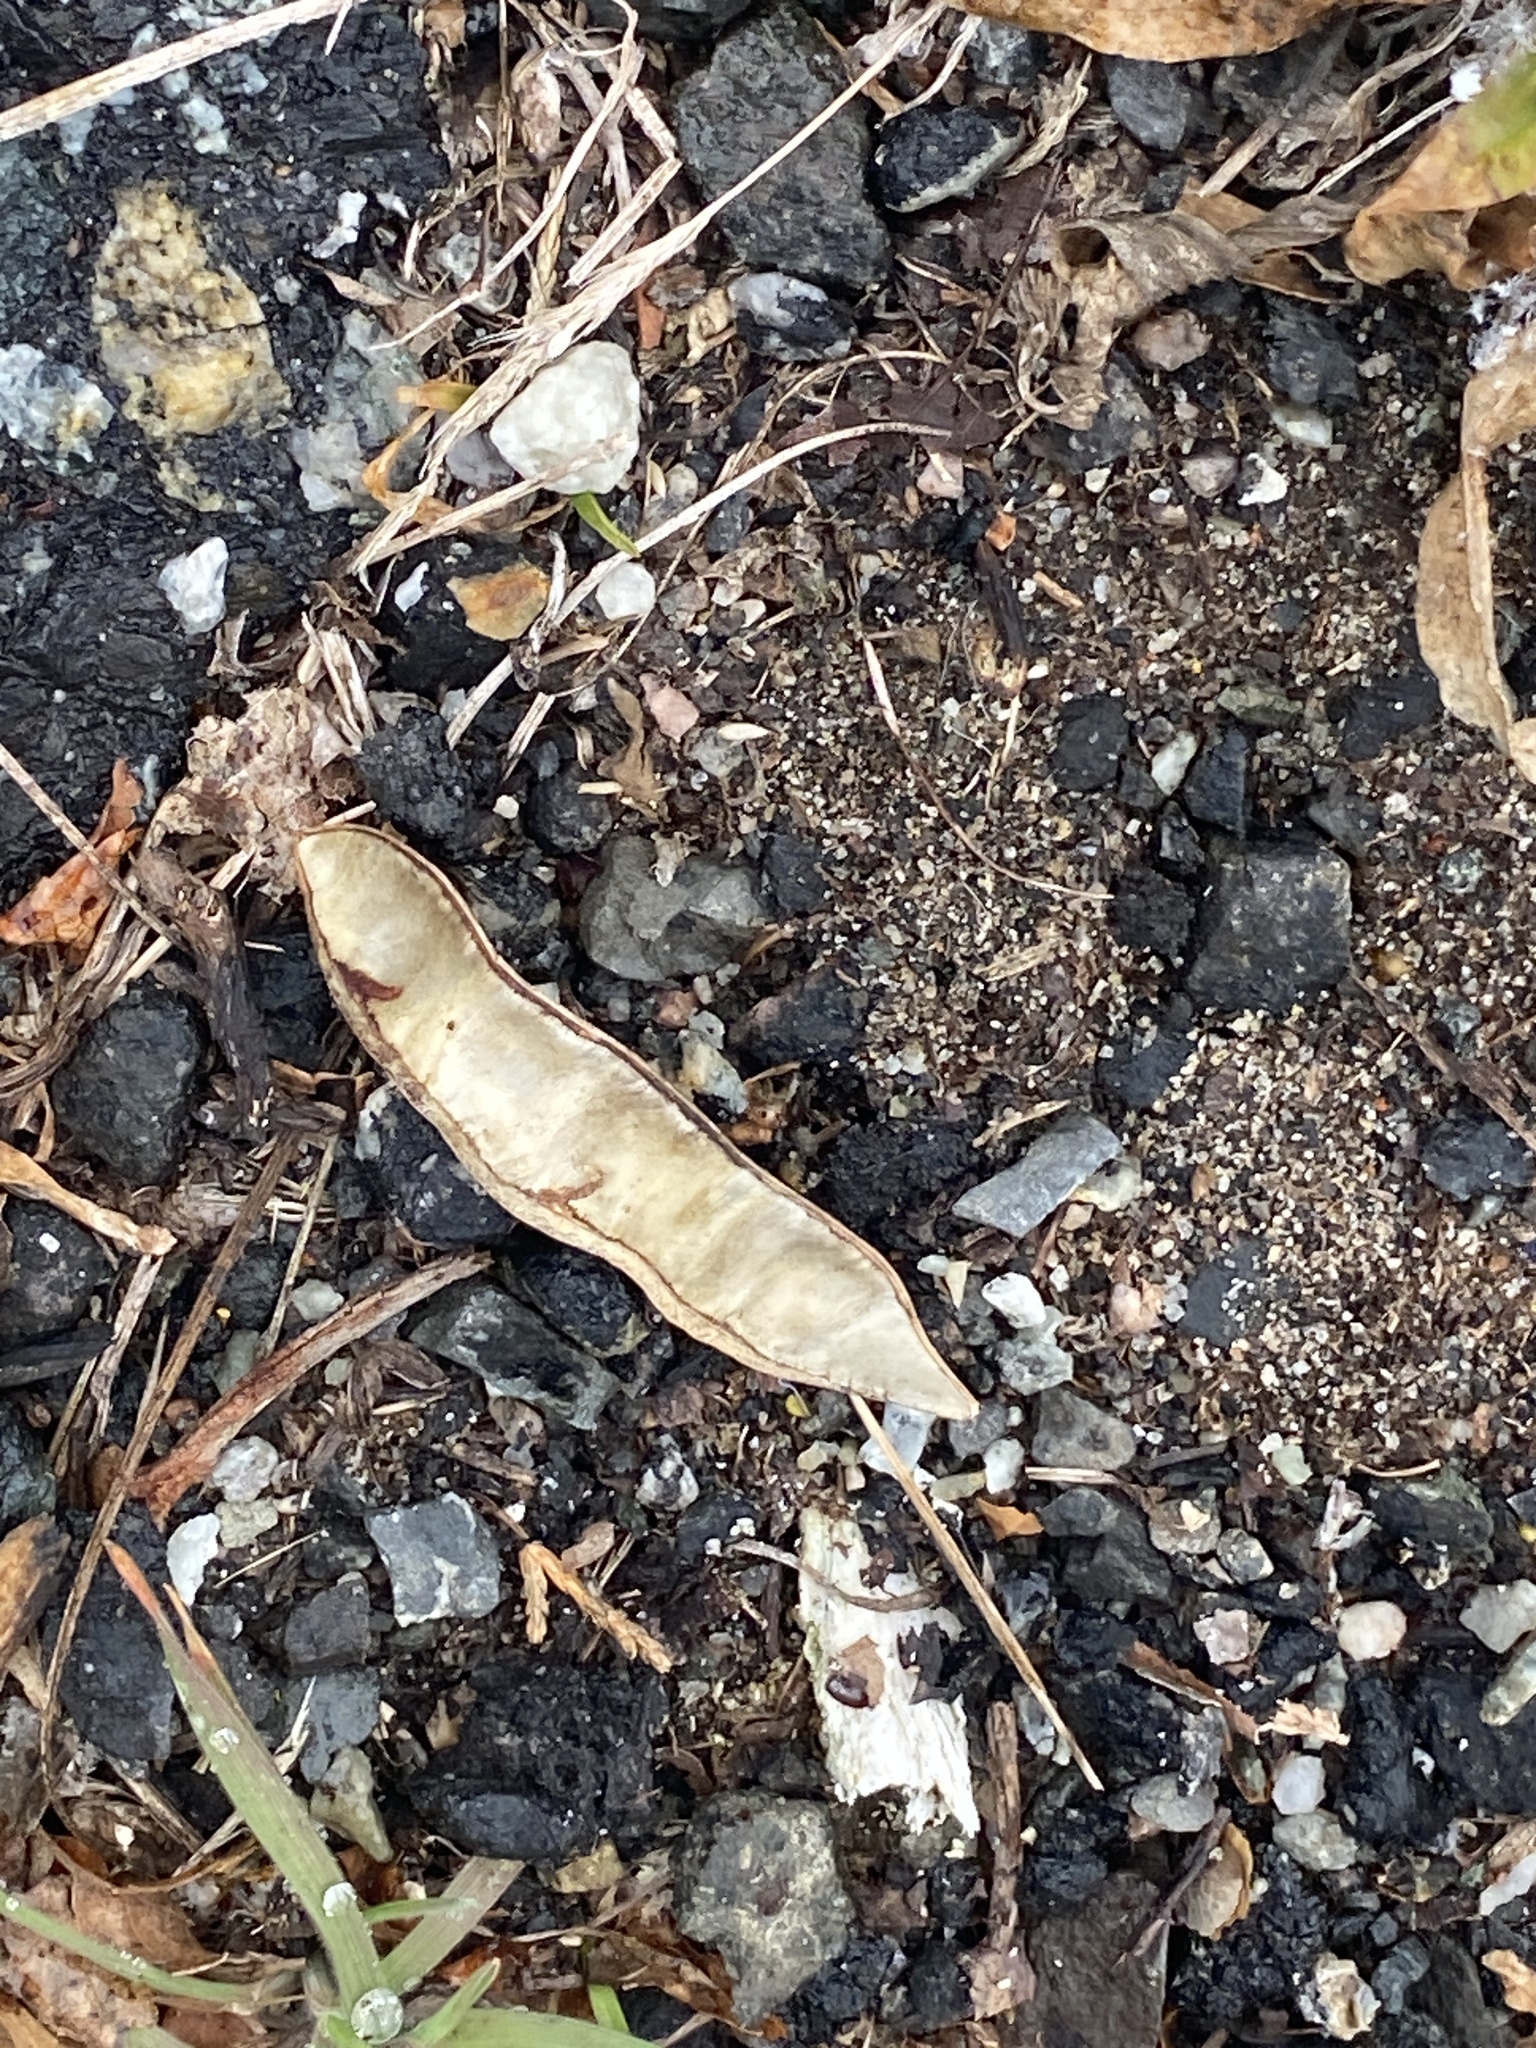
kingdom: Plantae
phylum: Tracheophyta
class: Magnoliopsida
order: Fabales
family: Fabaceae
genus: Robinia
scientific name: Robinia pseudoacacia
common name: Black locust
